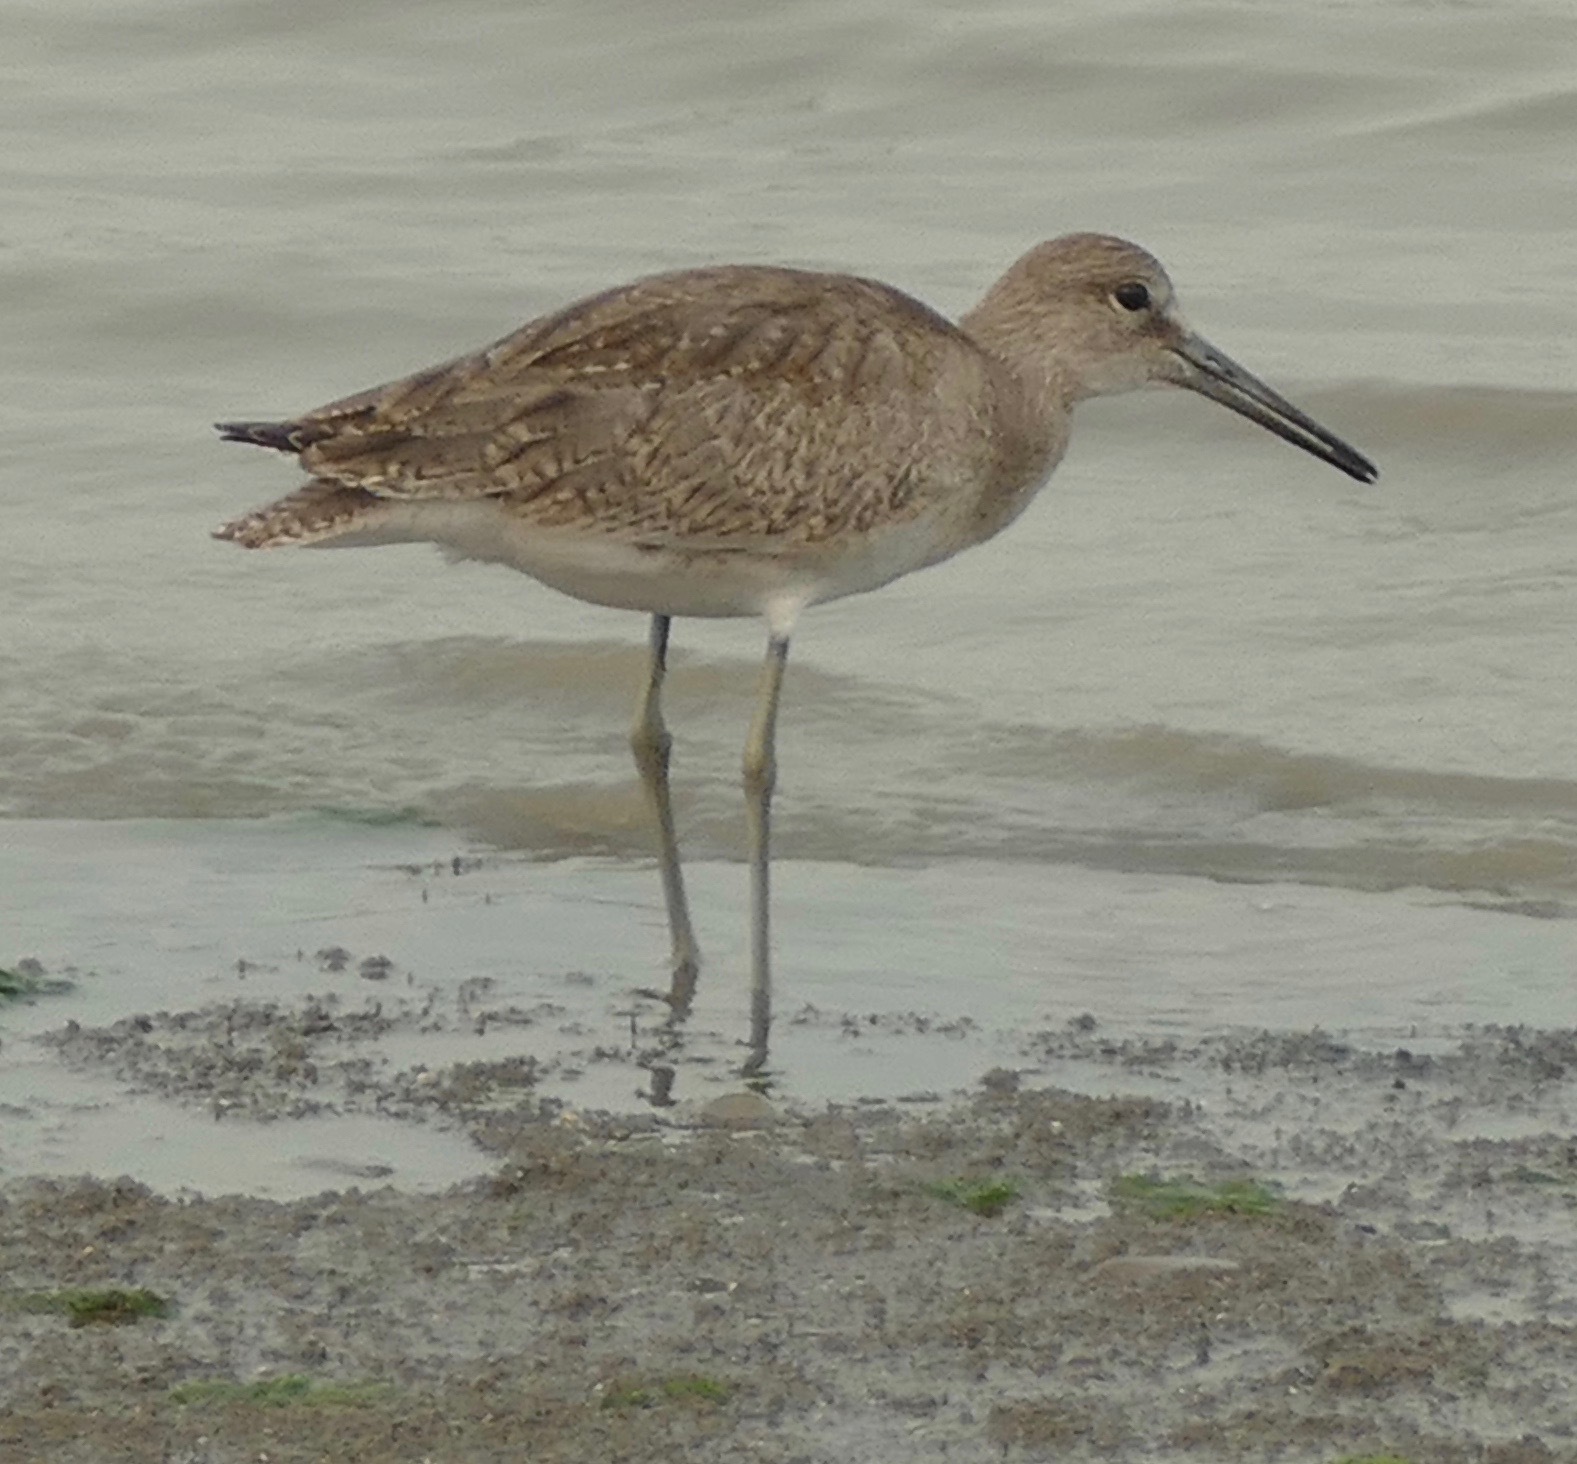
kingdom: Animalia
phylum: Chordata
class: Aves
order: Charadriiformes
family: Scolopacidae
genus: Tringa
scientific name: Tringa semipalmata
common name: Willet
